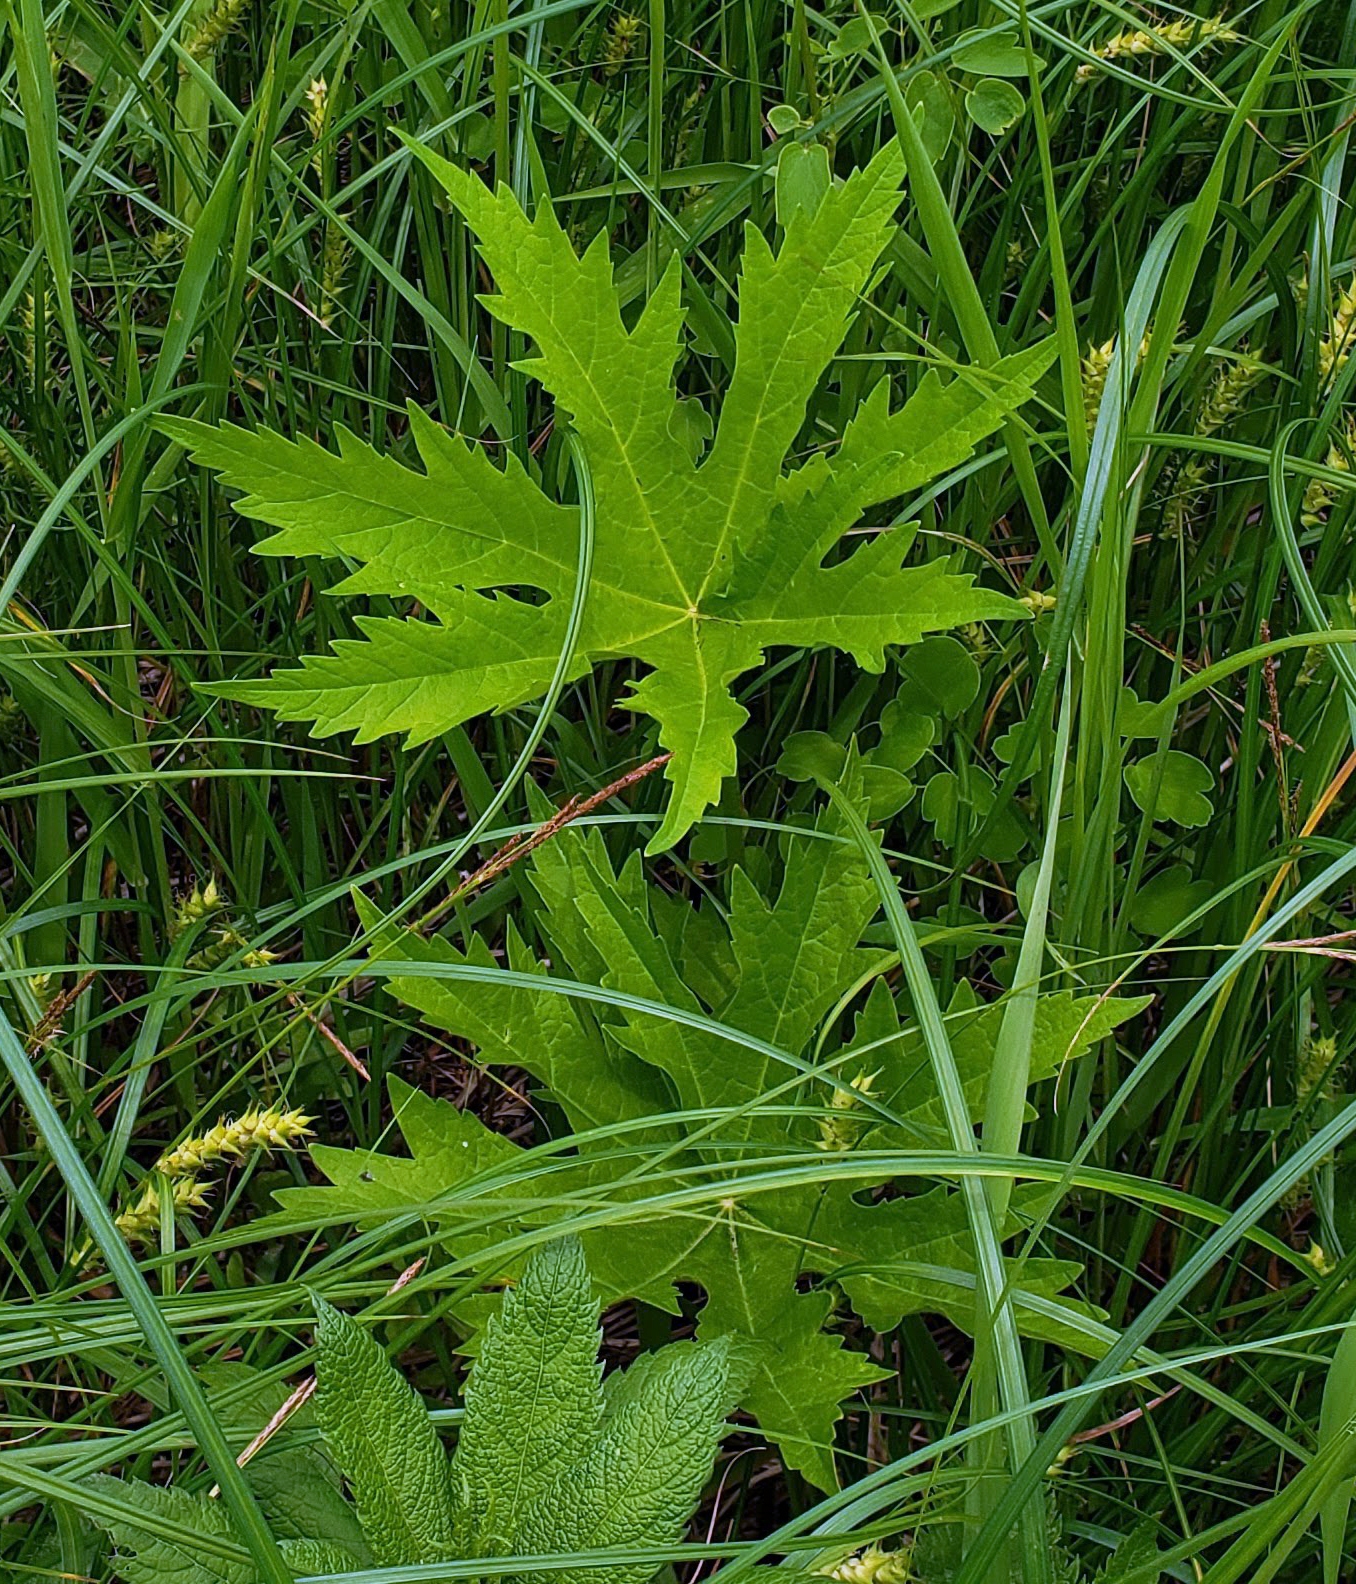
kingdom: Plantae
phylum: Tracheophyta
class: Magnoliopsida
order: Malvales
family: Malvaceae
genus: Napaea
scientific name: Napaea dioica
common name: Glade-mallow
